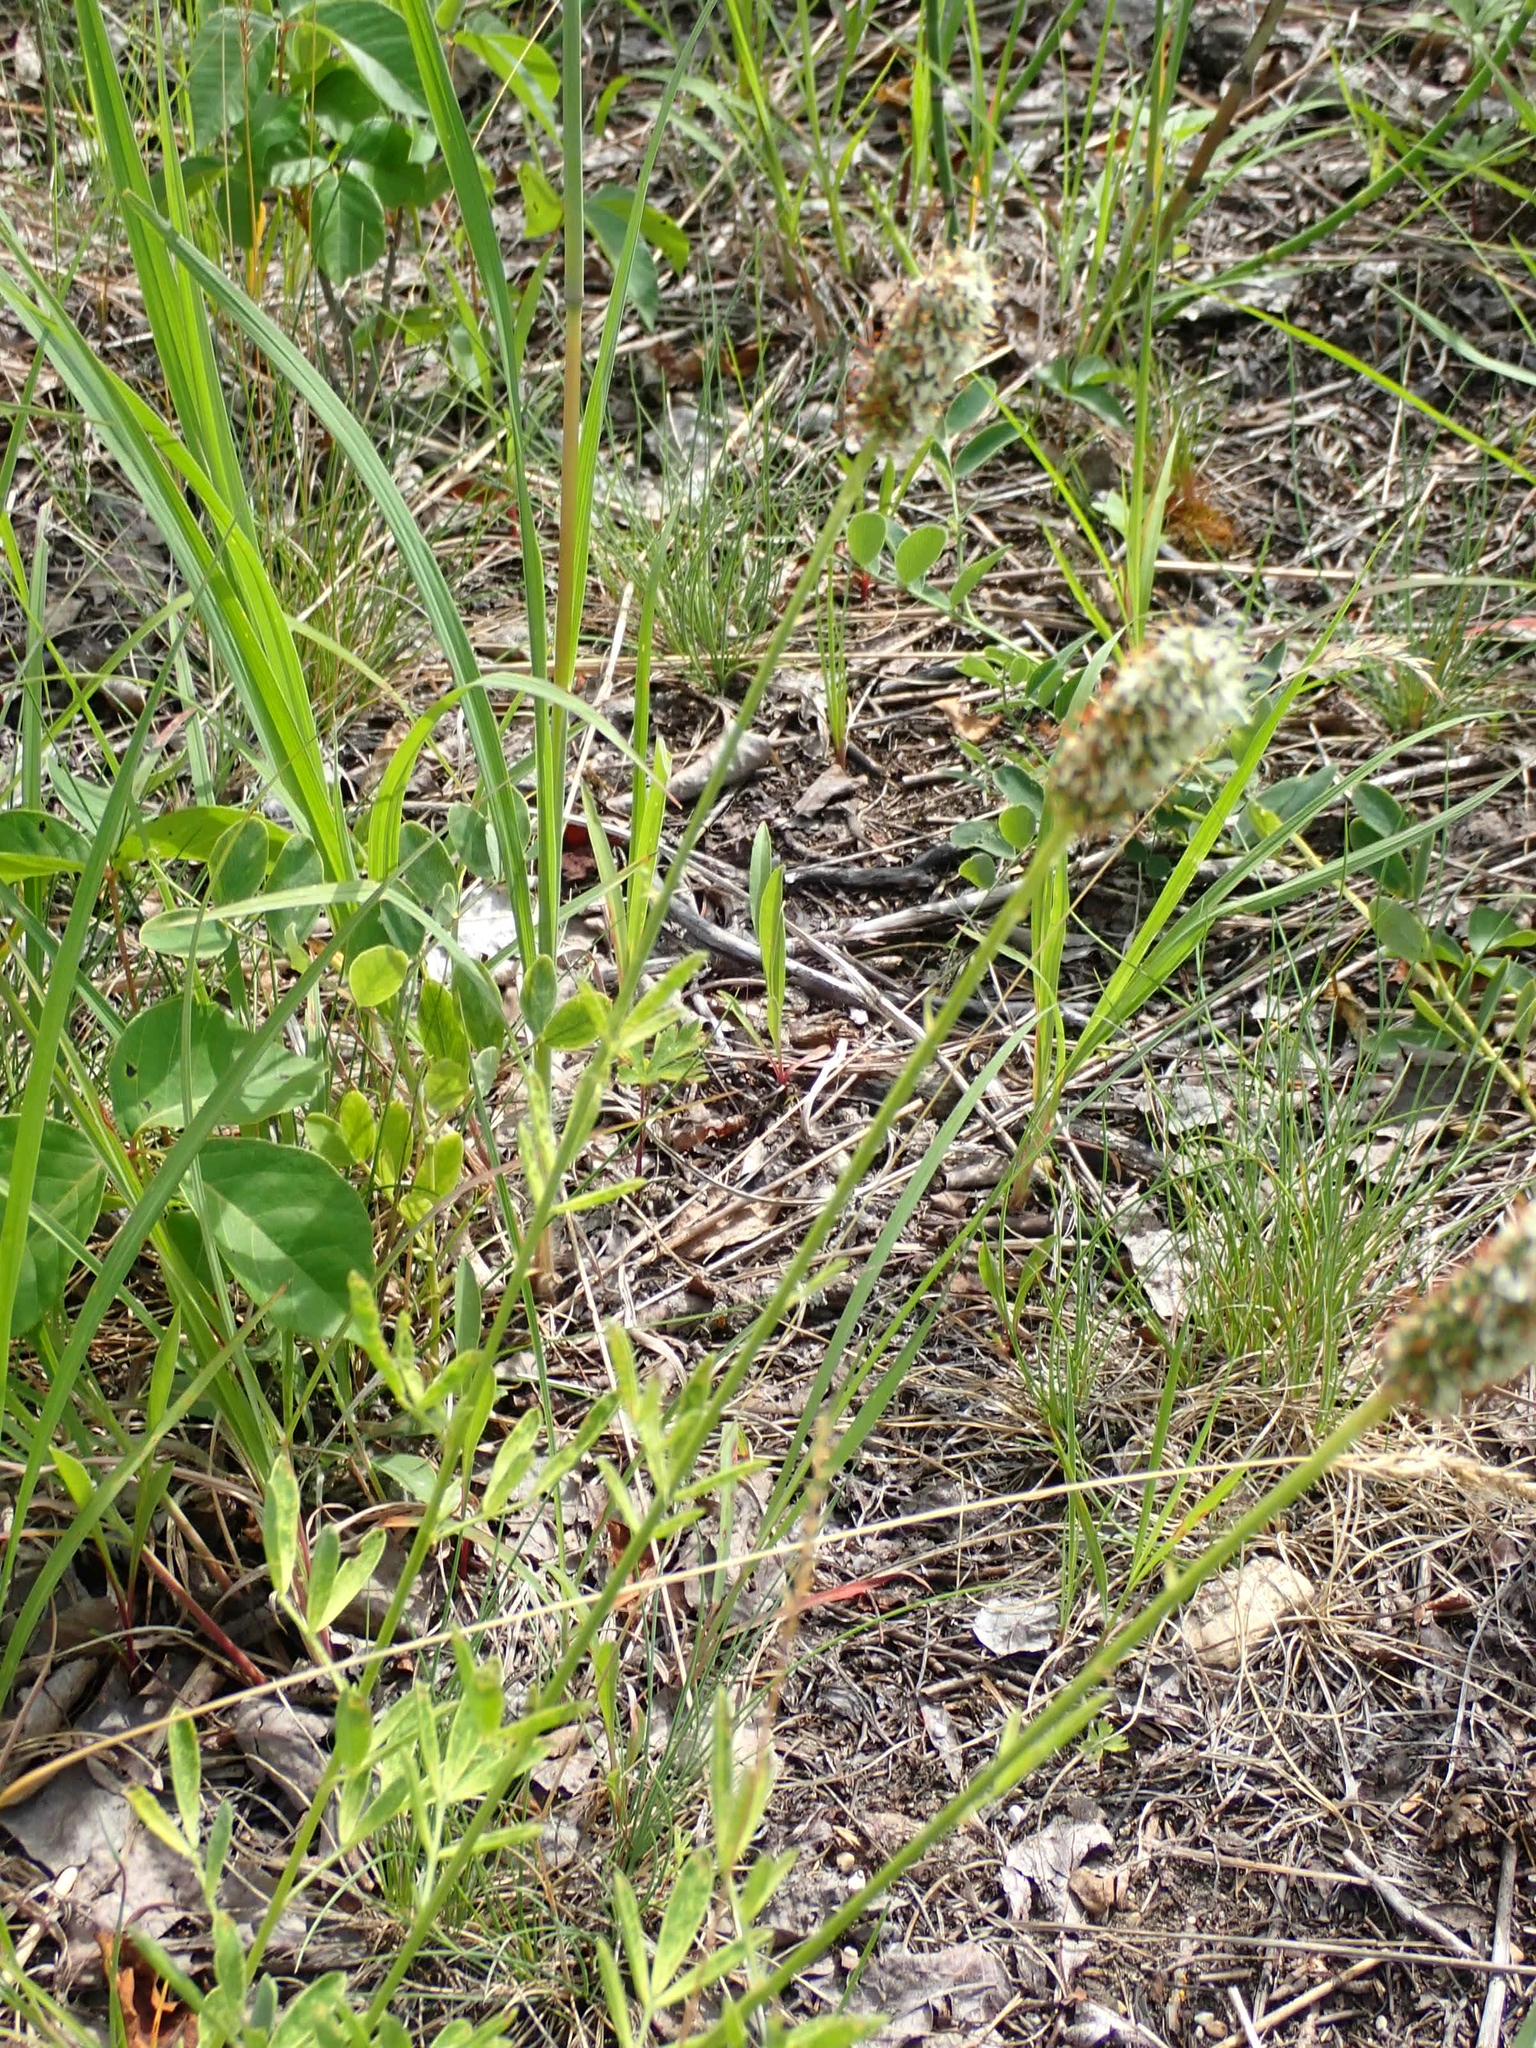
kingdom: Plantae
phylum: Tracheophyta
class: Magnoliopsida
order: Fabales
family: Fabaceae
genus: Dalea
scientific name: Dalea candida
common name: White prairie-clover
